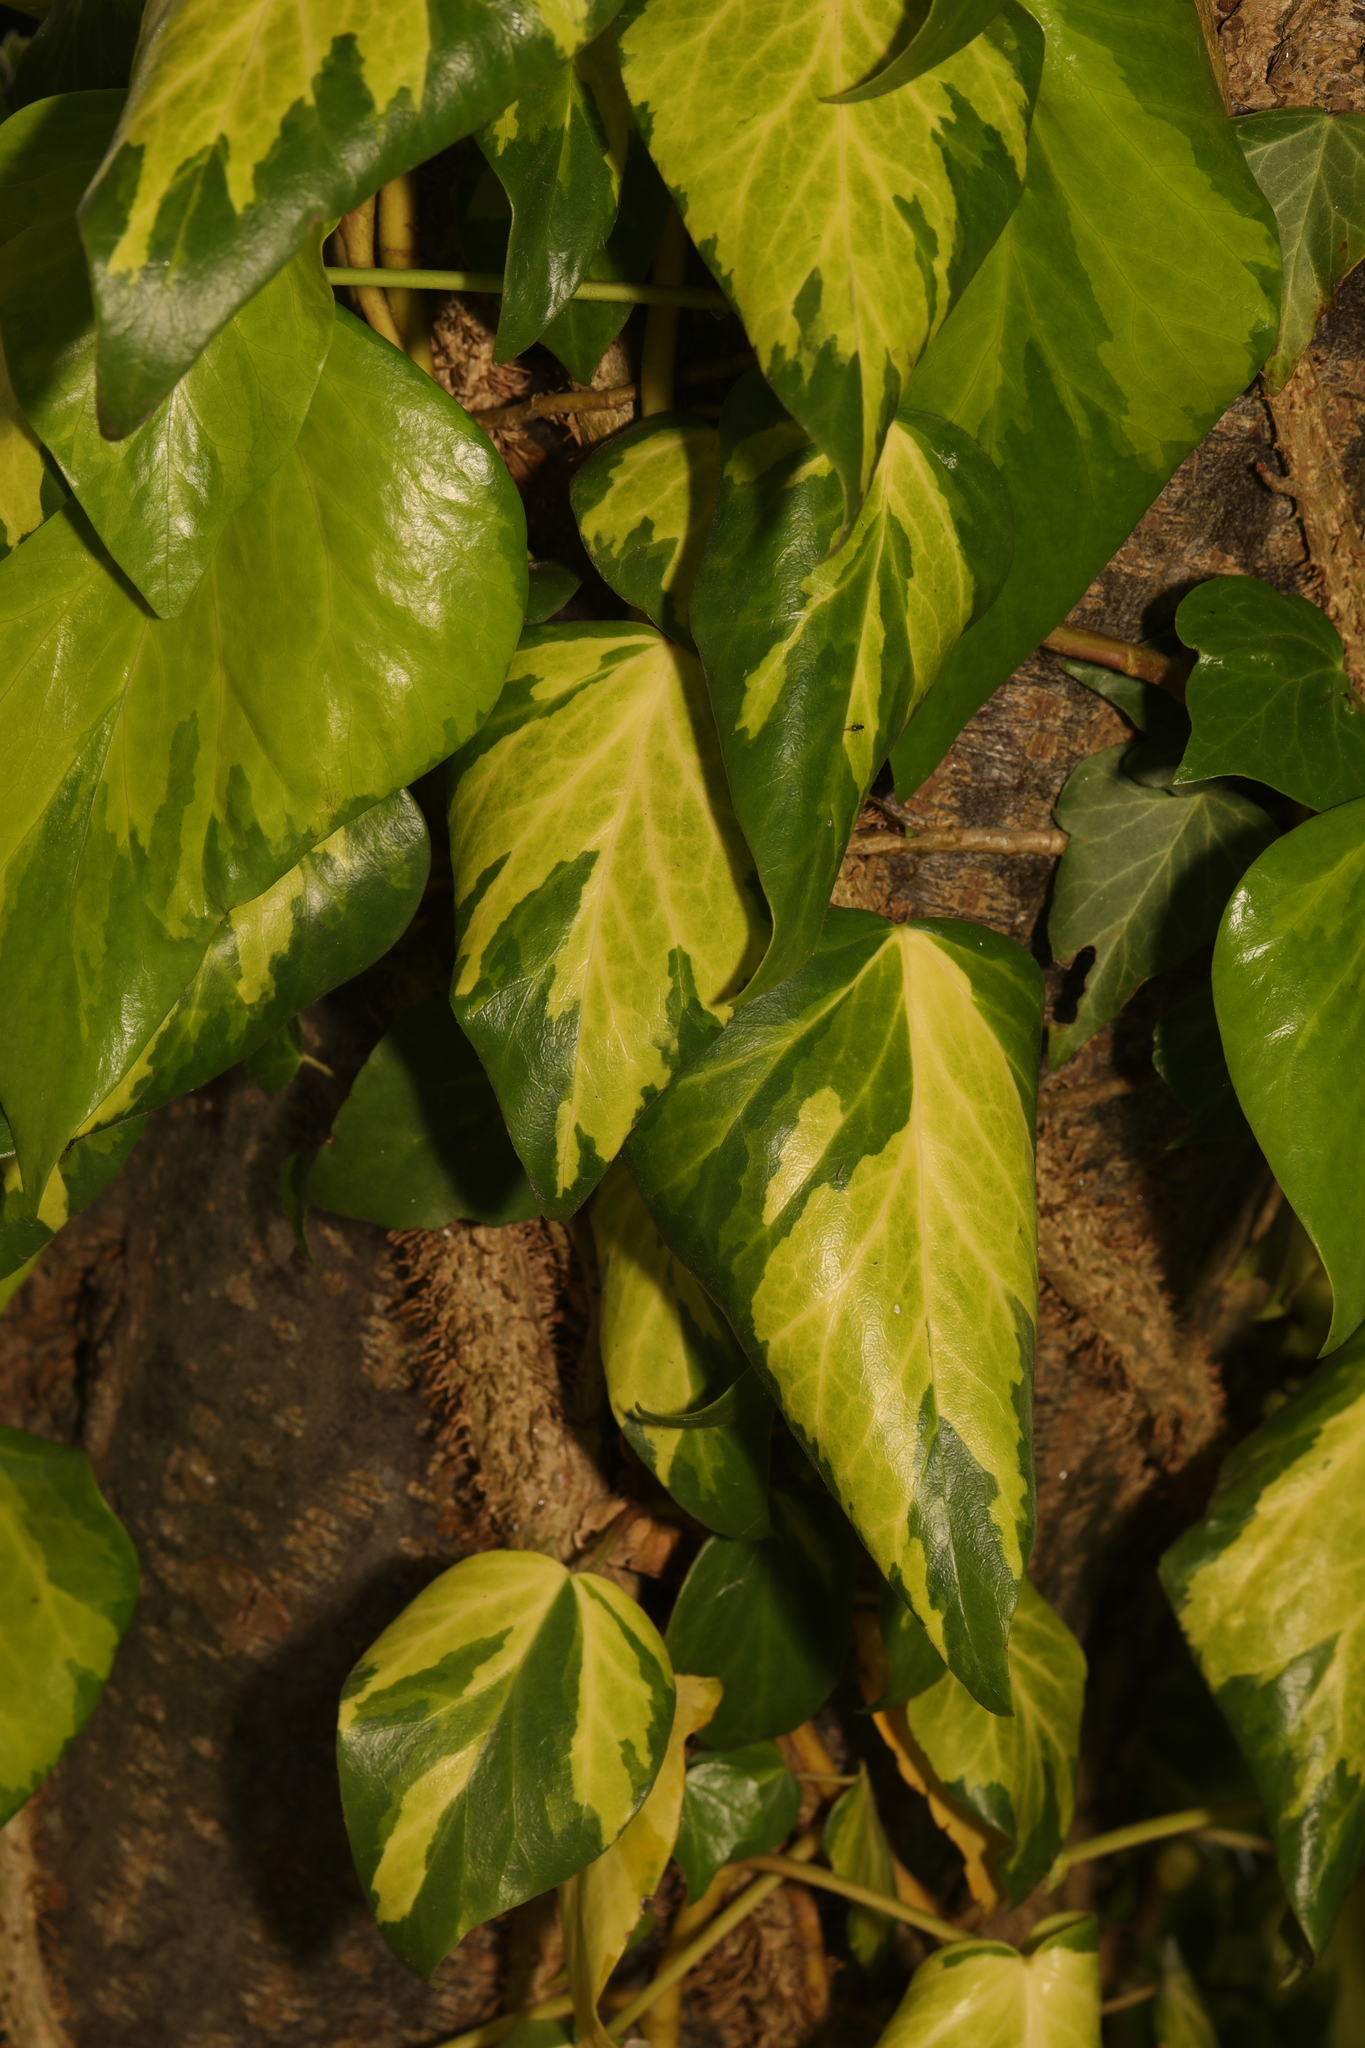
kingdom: Plantae
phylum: Tracheophyta
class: Magnoliopsida
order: Apiales
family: Araliaceae
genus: Hedera
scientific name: Hedera colchica
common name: Persian ivy
